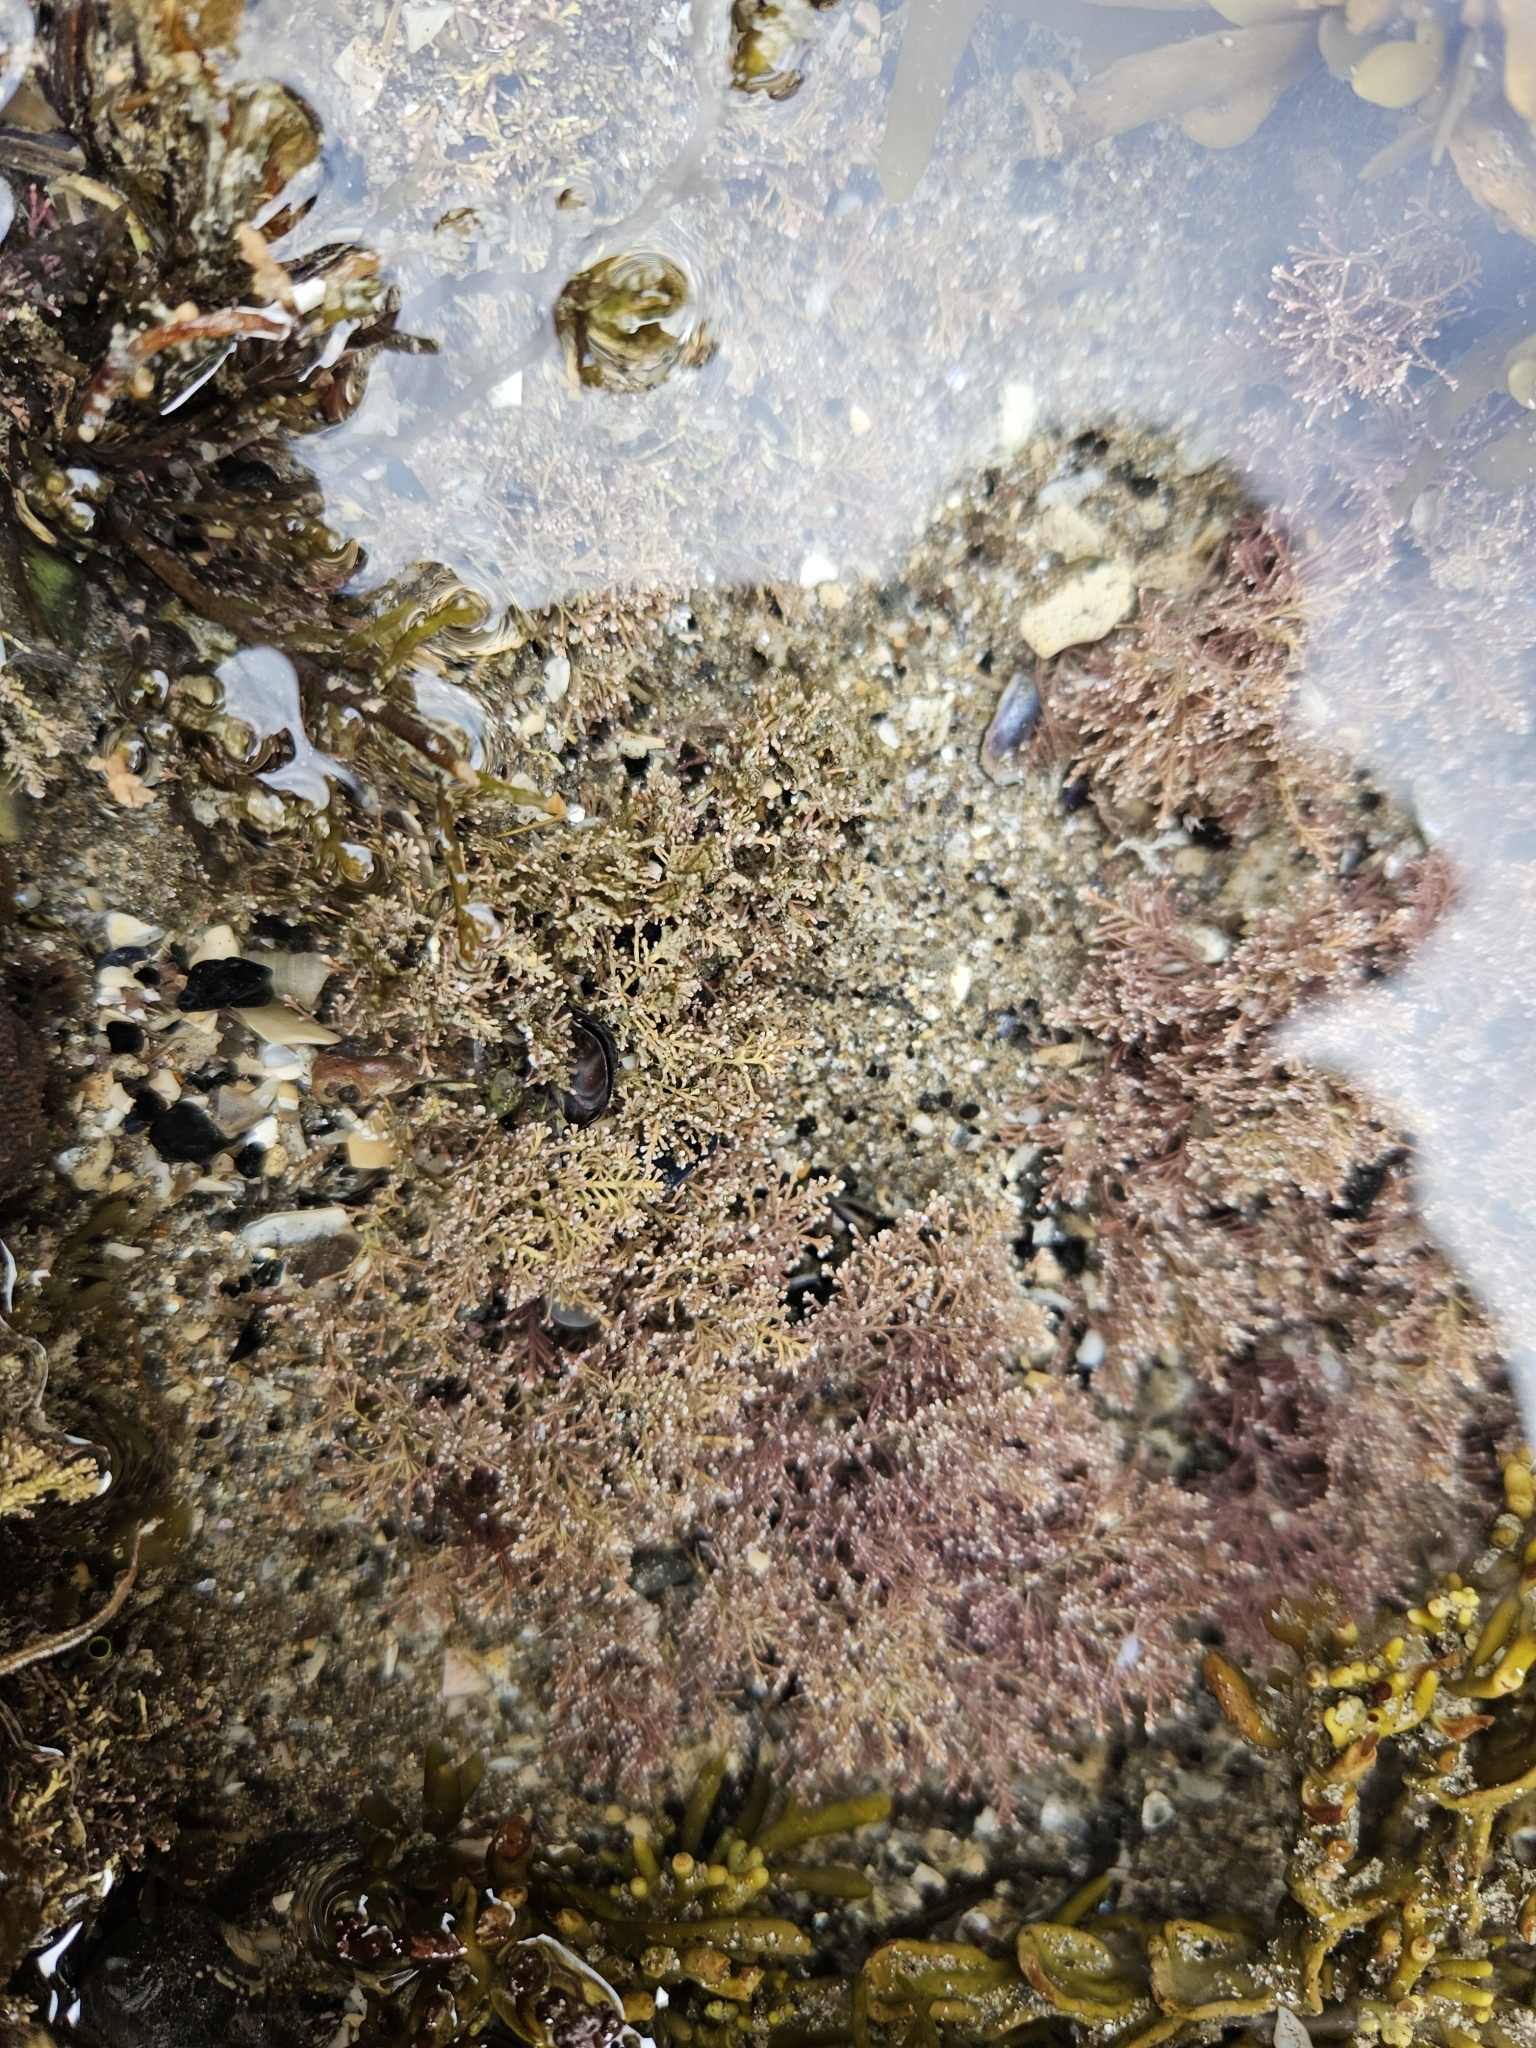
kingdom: Plantae
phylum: Rhodophyta
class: Florideophyceae
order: Corallinales
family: Corallinaceae
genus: Corallina
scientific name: Corallina officinalis
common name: Coral weed
